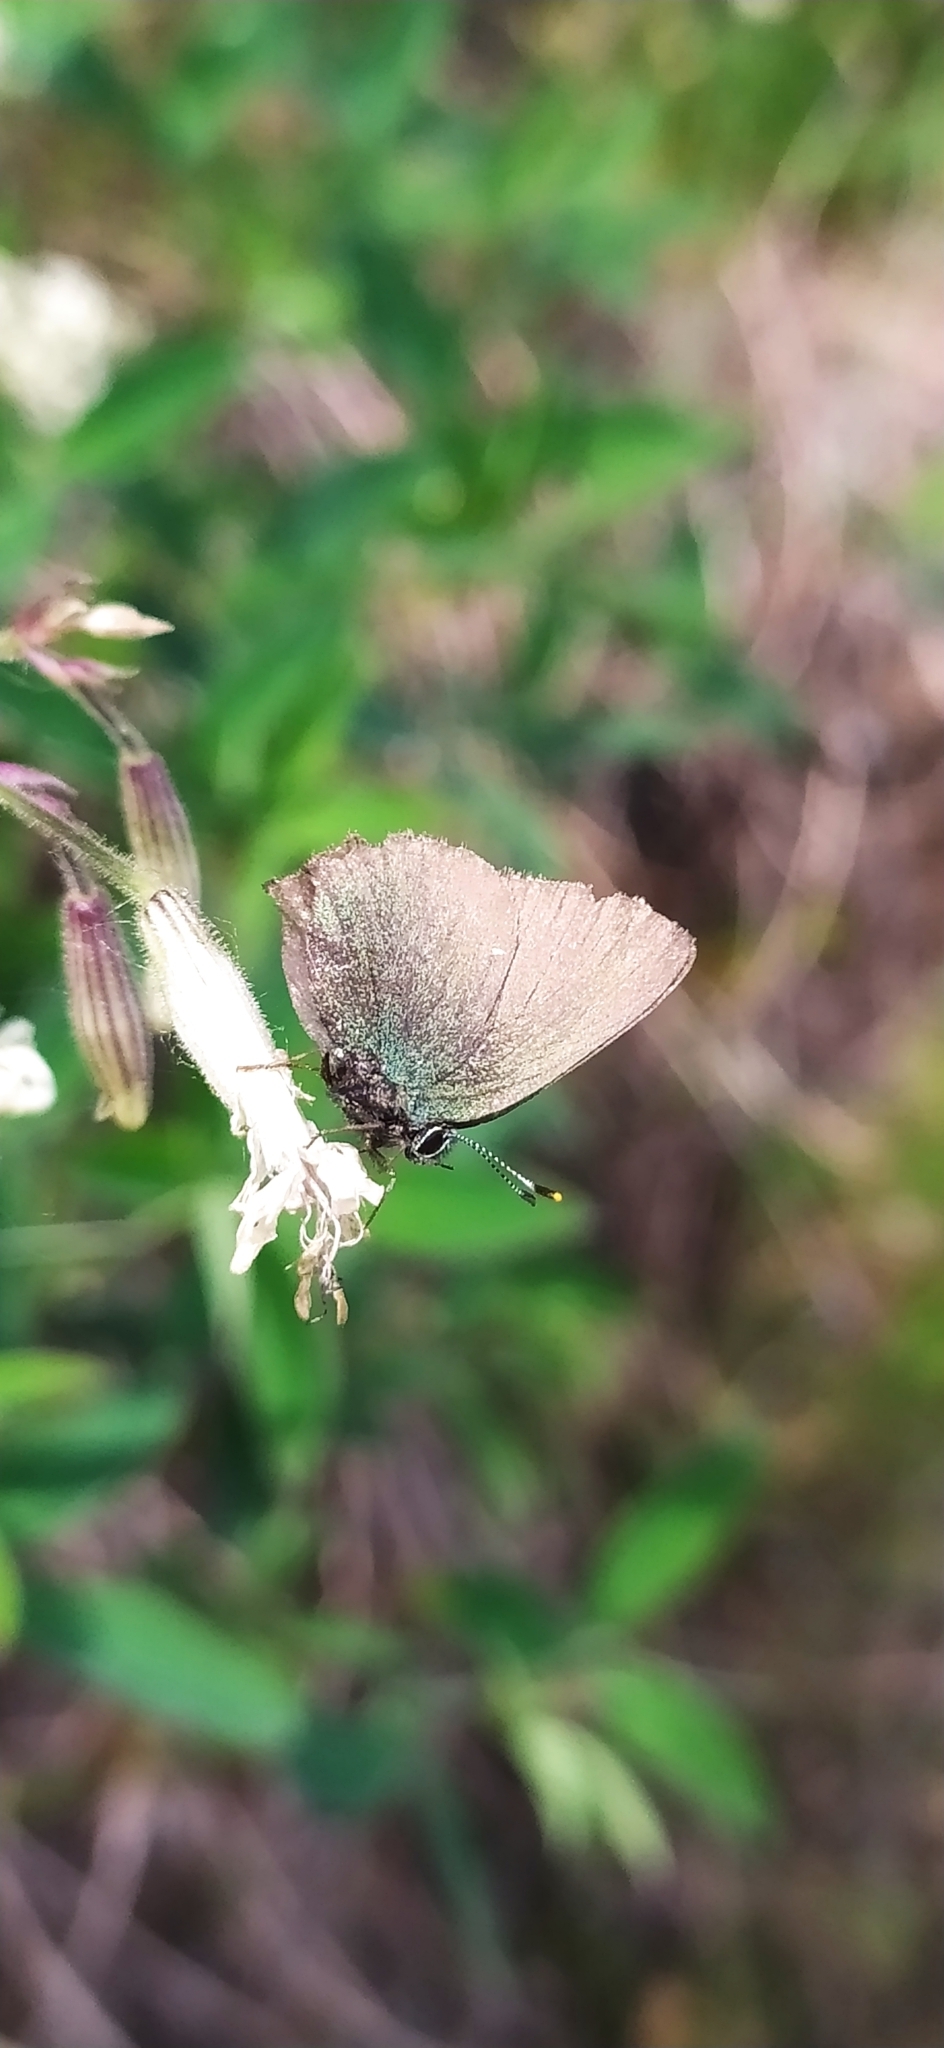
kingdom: Animalia
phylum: Arthropoda
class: Insecta
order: Lepidoptera
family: Lycaenidae
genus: Callophrys
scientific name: Callophrys rubi
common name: Green hairstreak
